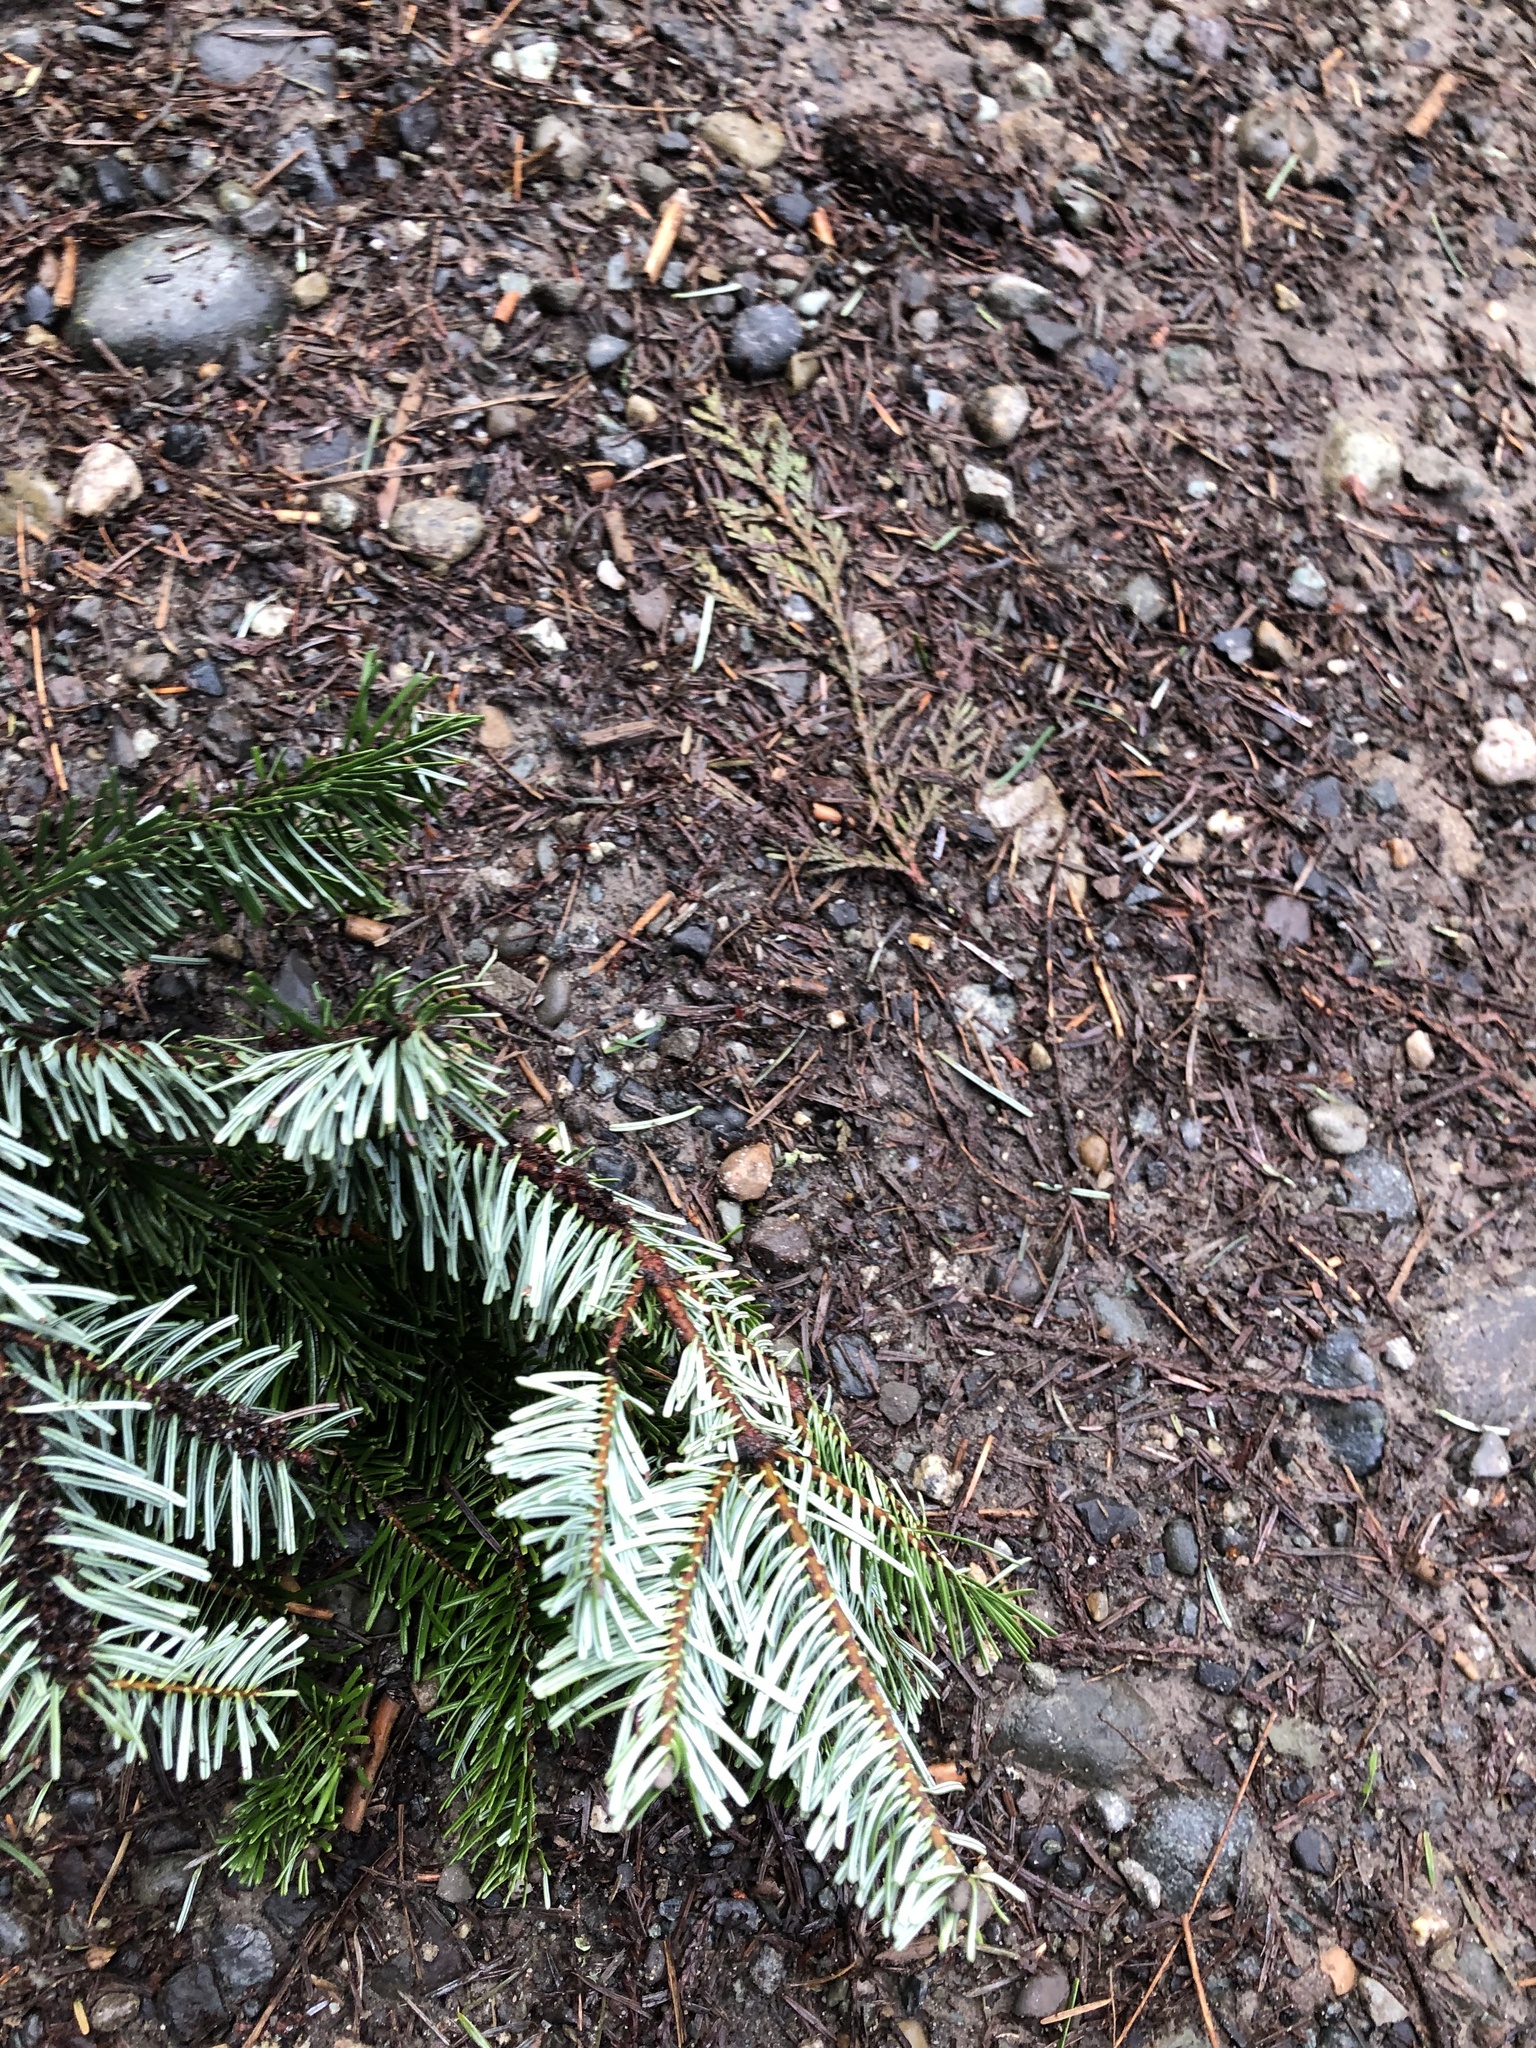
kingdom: Plantae
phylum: Tracheophyta
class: Pinopsida
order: Pinales
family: Pinaceae
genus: Abies
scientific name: Abies grandis
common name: Giant fir
